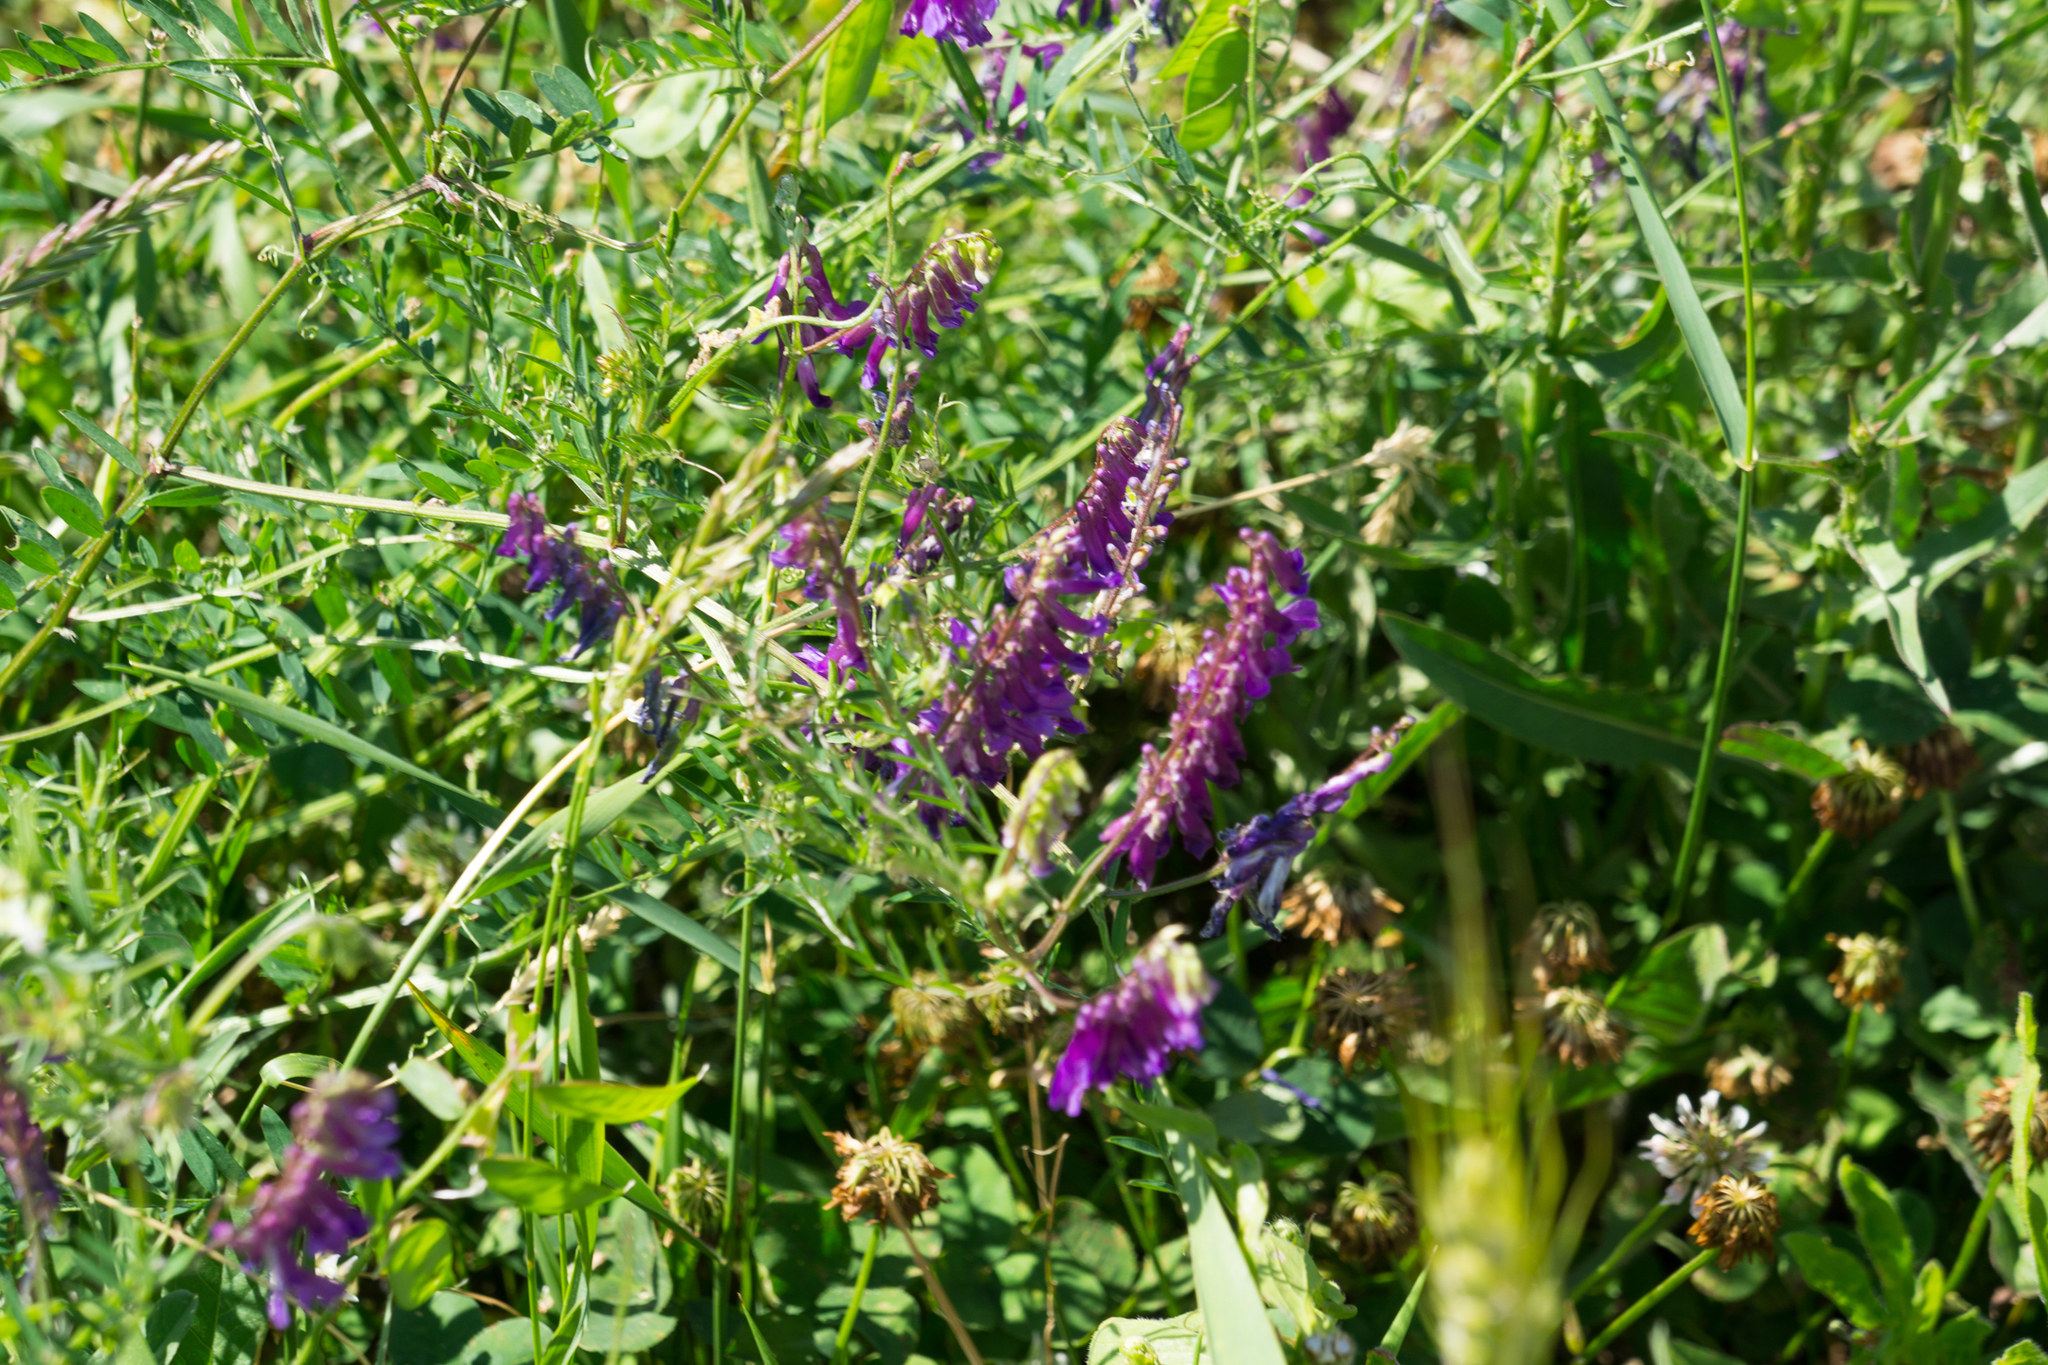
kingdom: Plantae
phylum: Tracheophyta
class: Magnoliopsida
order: Fabales
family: Fabaceae
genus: Vicia
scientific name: Vicia cracca
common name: Bird vetch
